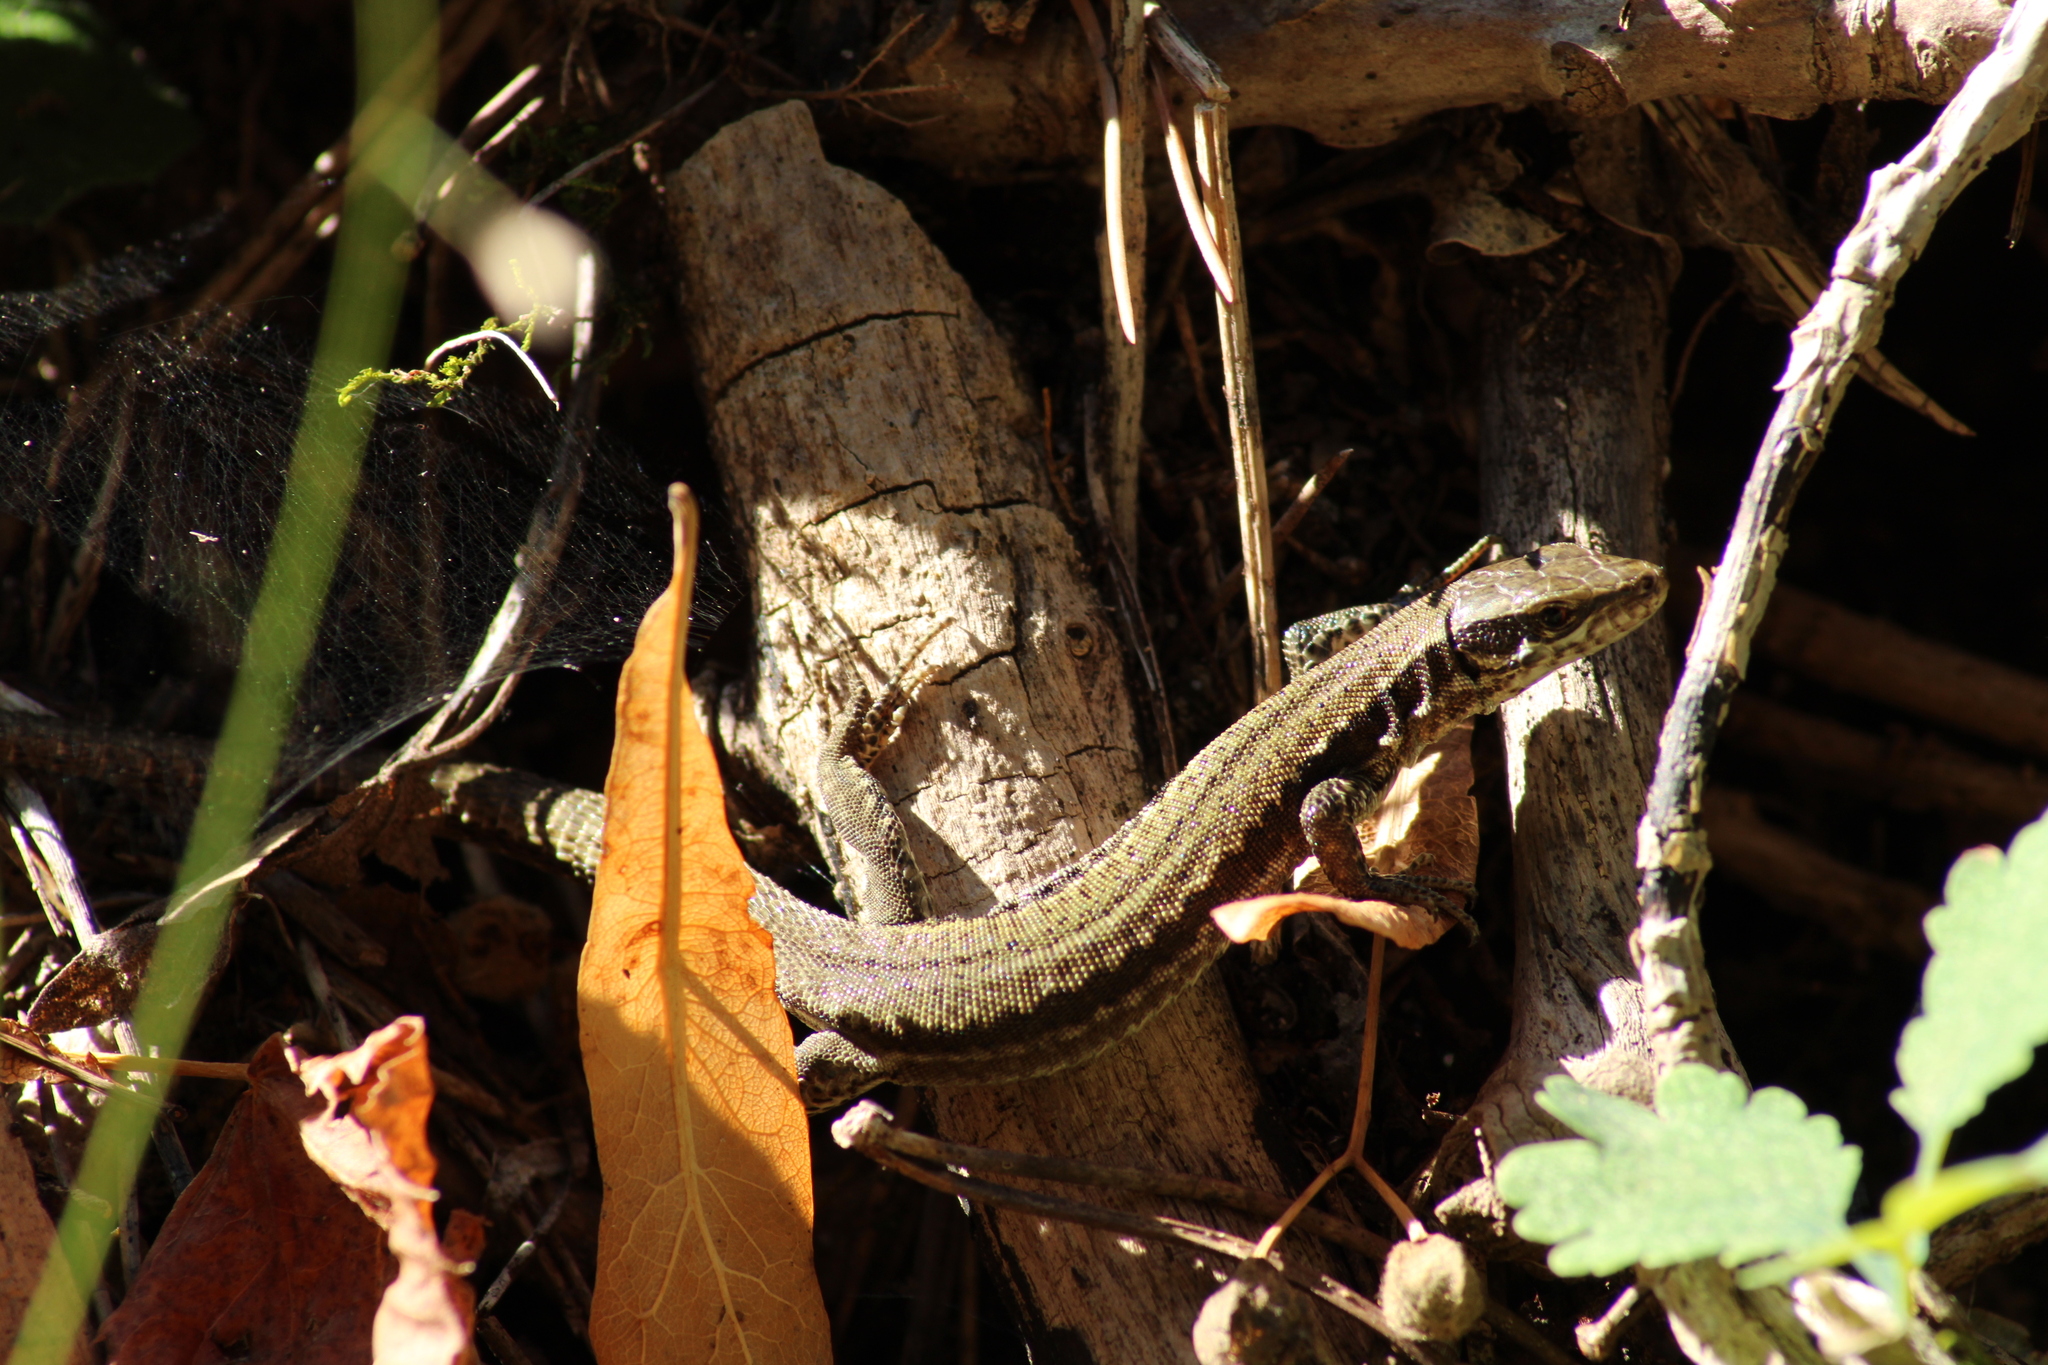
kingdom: Animalia
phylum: Chordata
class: Squamata
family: Lacertidae
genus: Podarcis
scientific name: Podarcis muralis
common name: Common wall lizard
